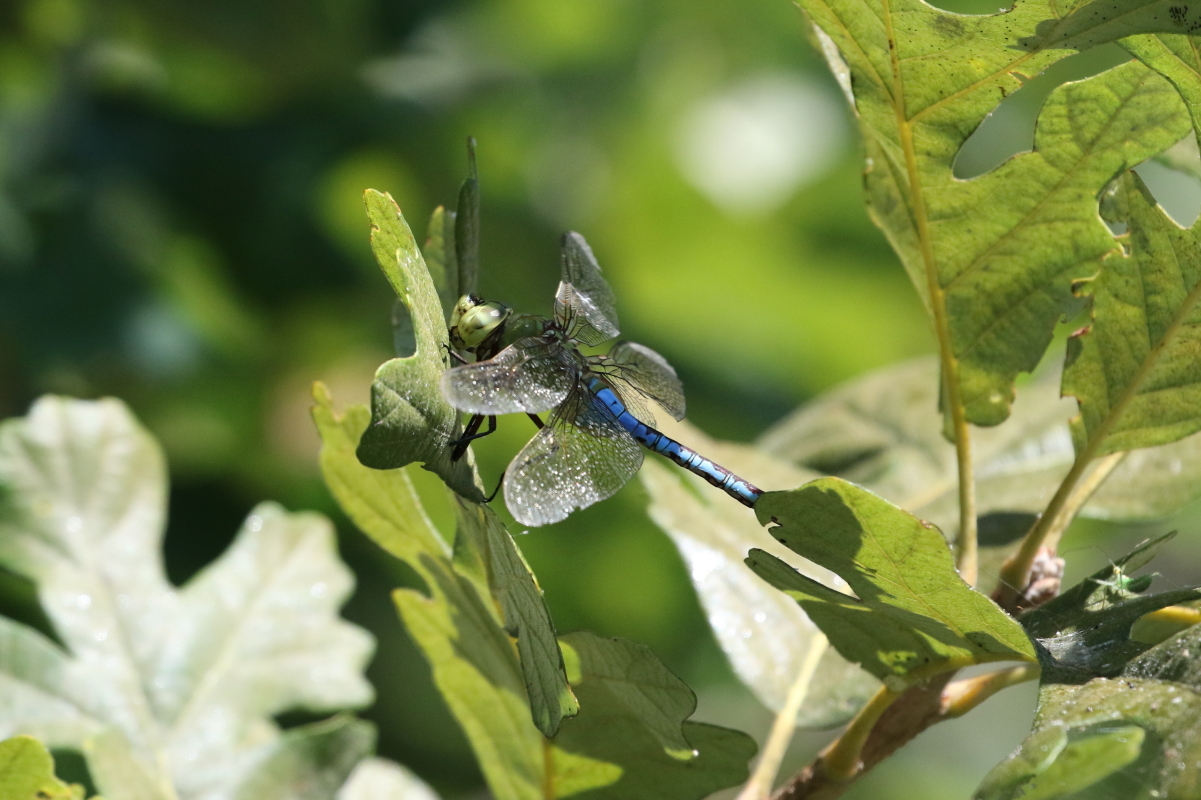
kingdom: Animalia
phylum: Arthropoda
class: Insecta
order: Odonata
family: Aeshnidae
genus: Anax
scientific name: Anax junius
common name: Common green darner
